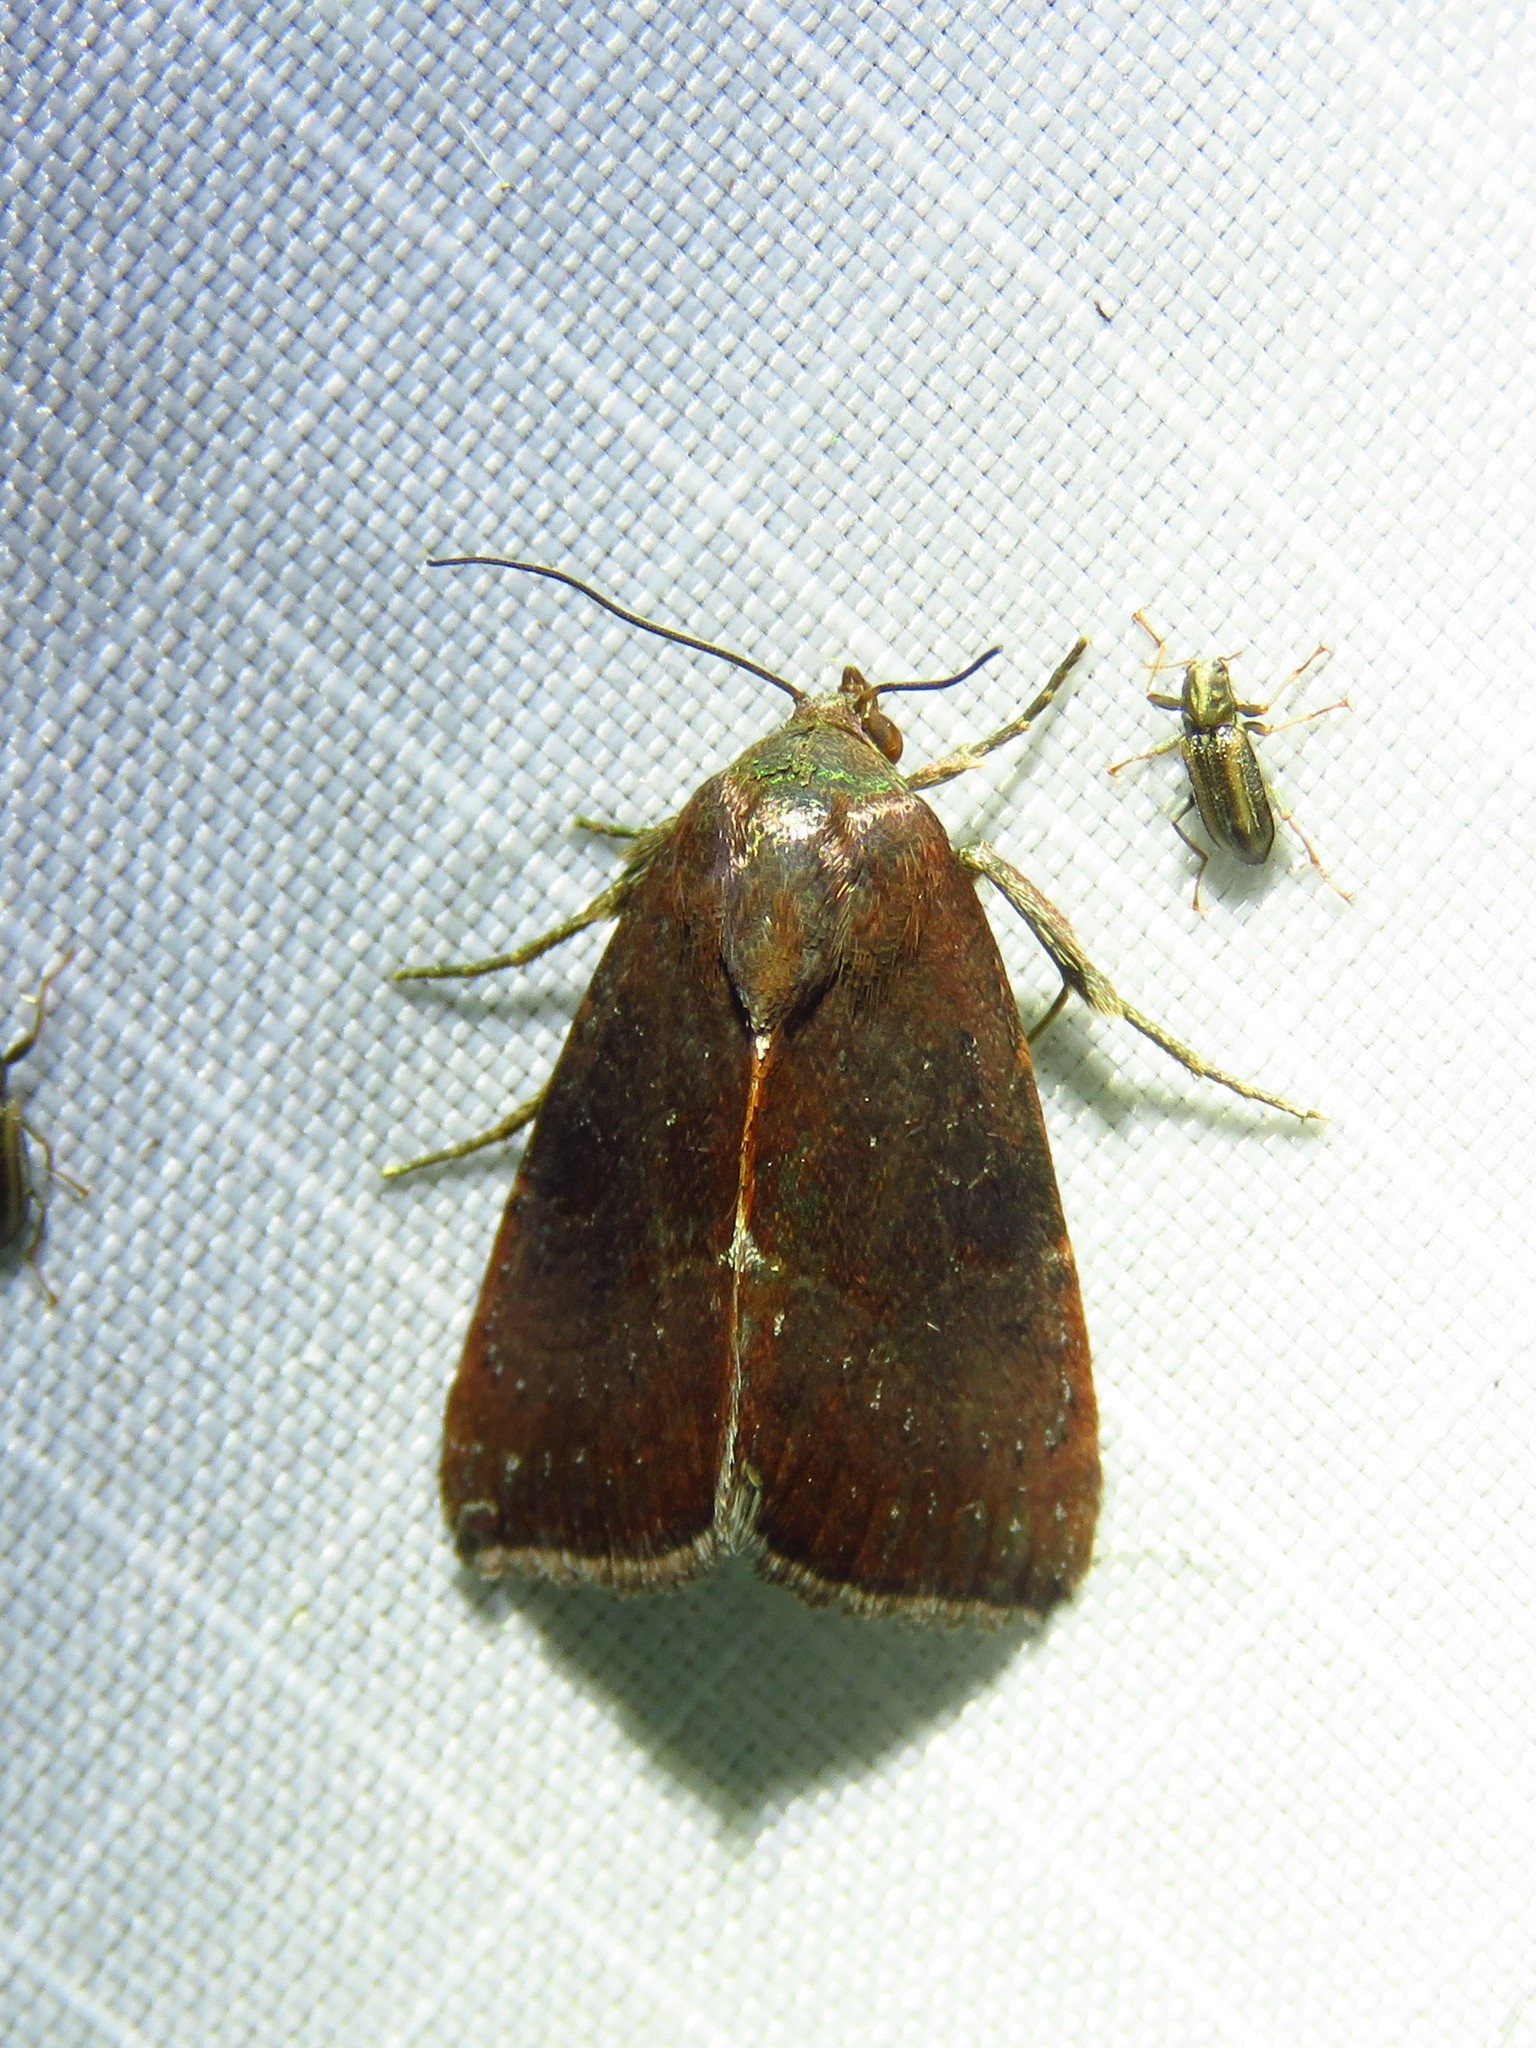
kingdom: Animalia
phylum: Arthropoda
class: Insecta
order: Lepidoptera
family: Noctuidae
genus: Galgula
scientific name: Galgula partita
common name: Wedgeling
